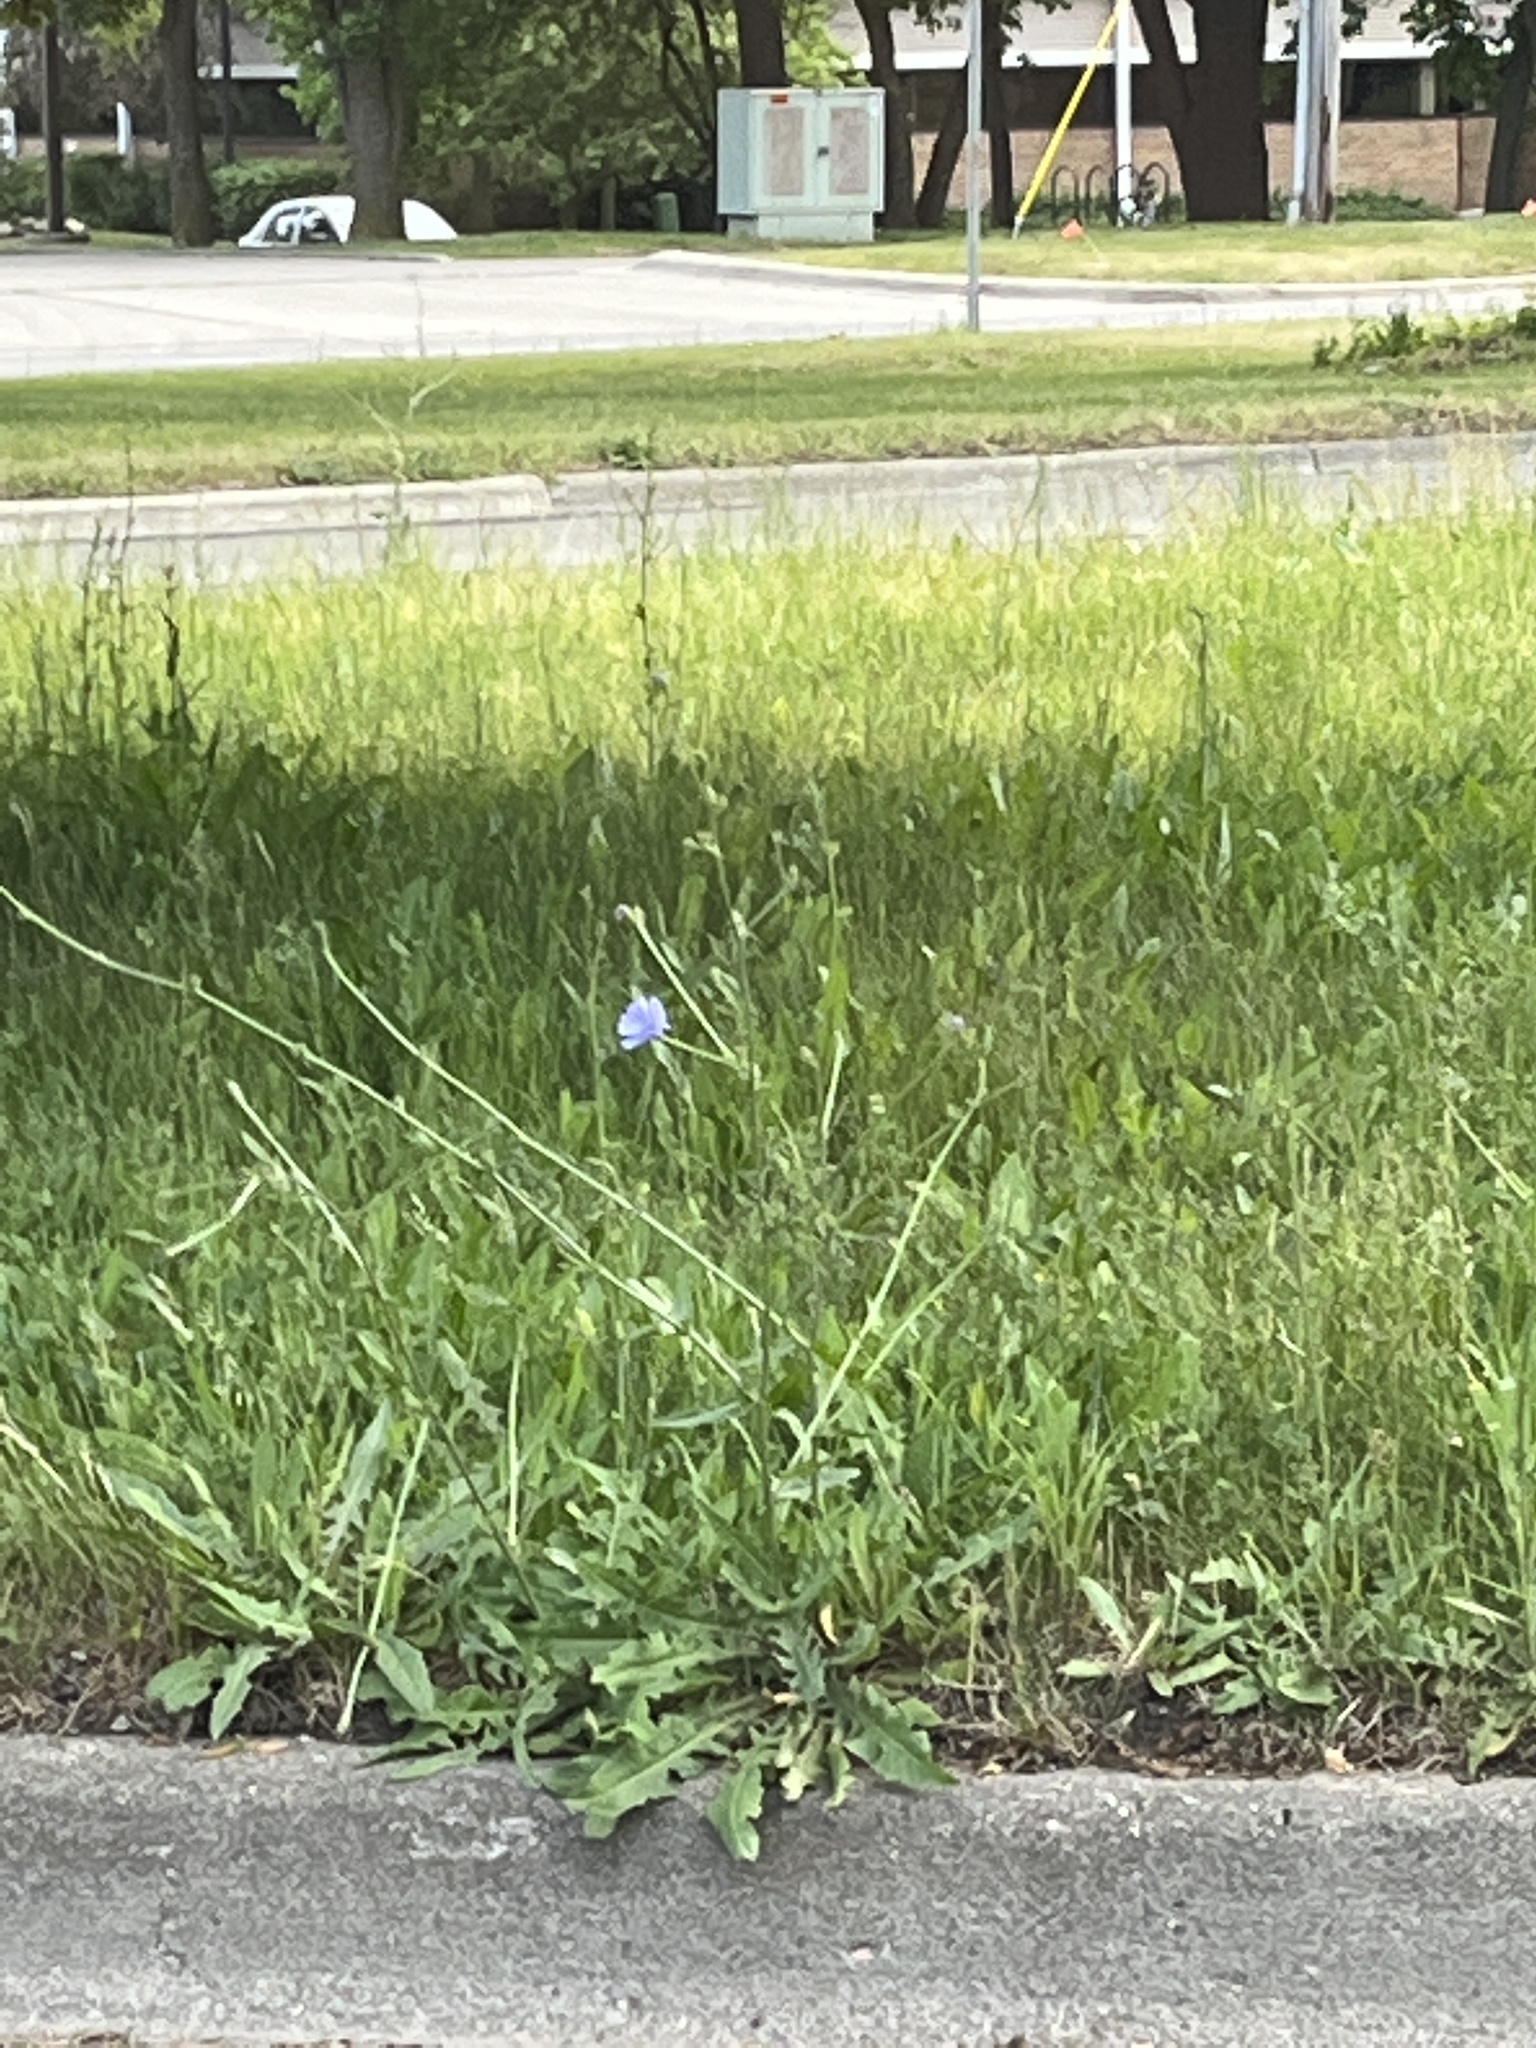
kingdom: Plantae
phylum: Tracheophyta
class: Magnoliopsida
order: Asterales
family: Asteraceae
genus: Cichorium
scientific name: Cichorium intybus
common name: Chicory
